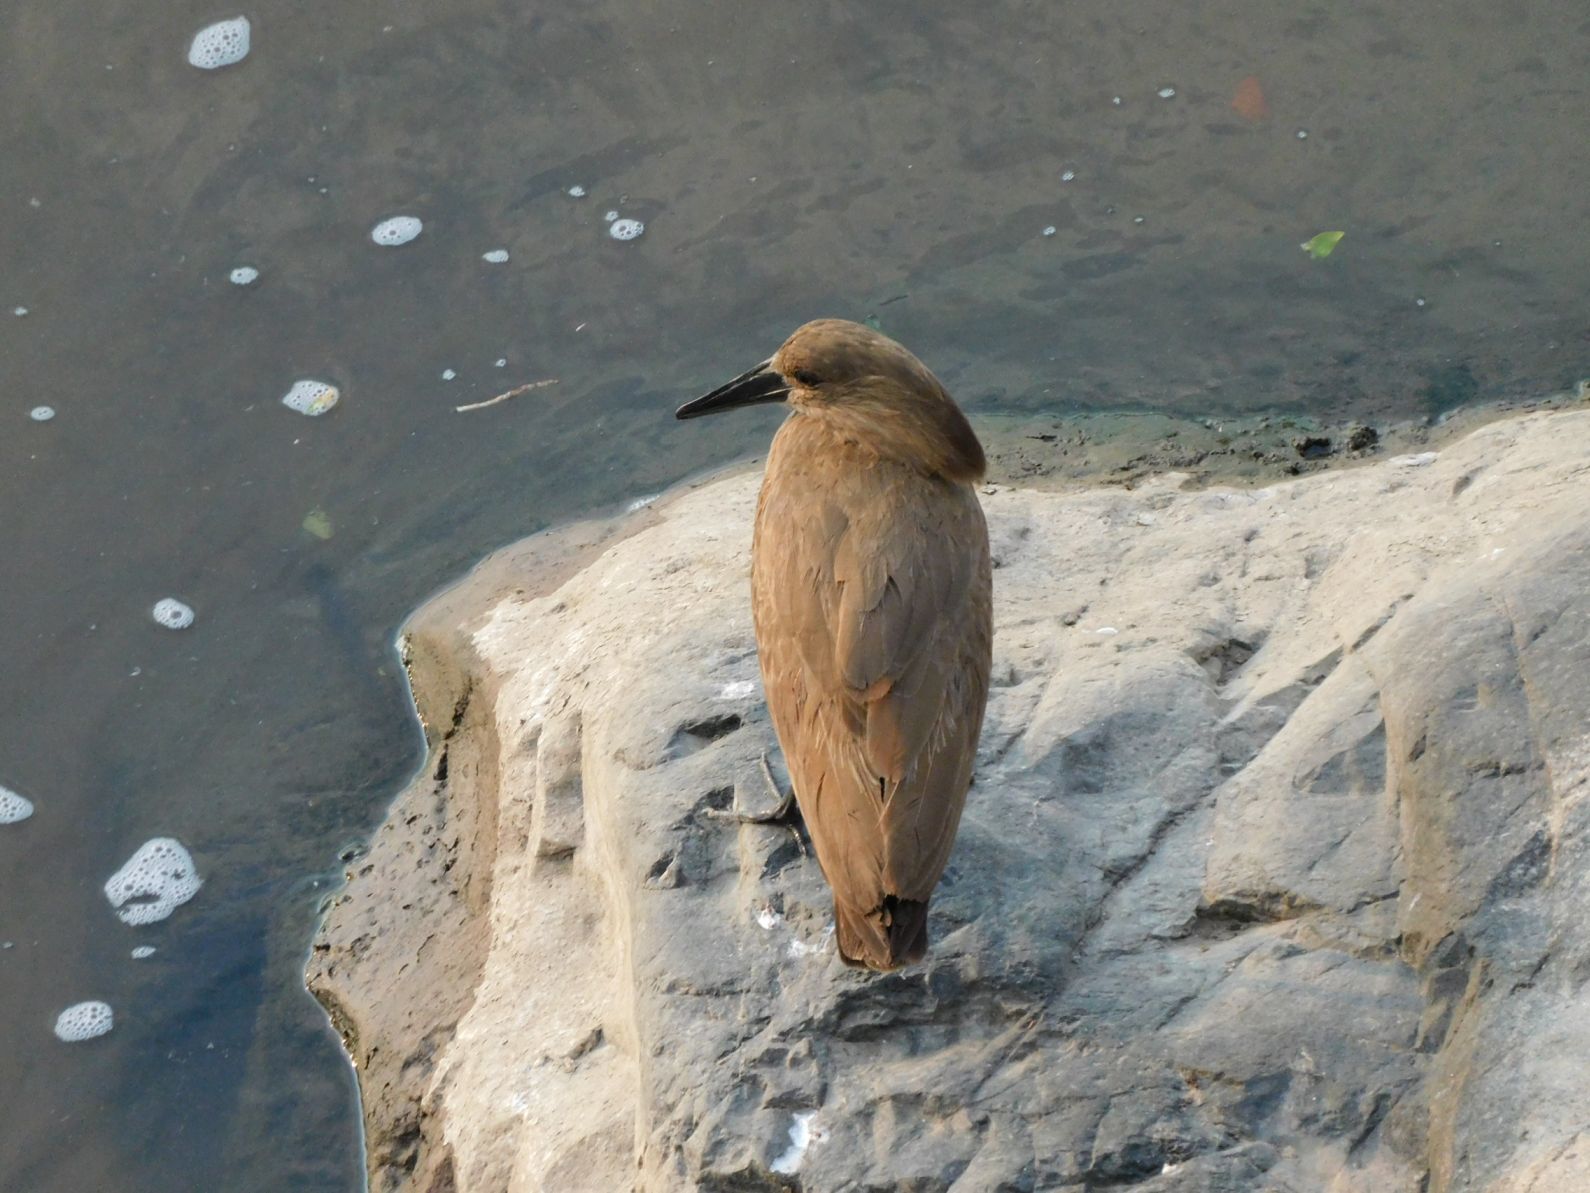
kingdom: Animalia
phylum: Chordata
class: Aves
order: Pelecaniformes
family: Scopidae
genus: Scopus
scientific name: Scopus umbretta
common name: Hamerkop
